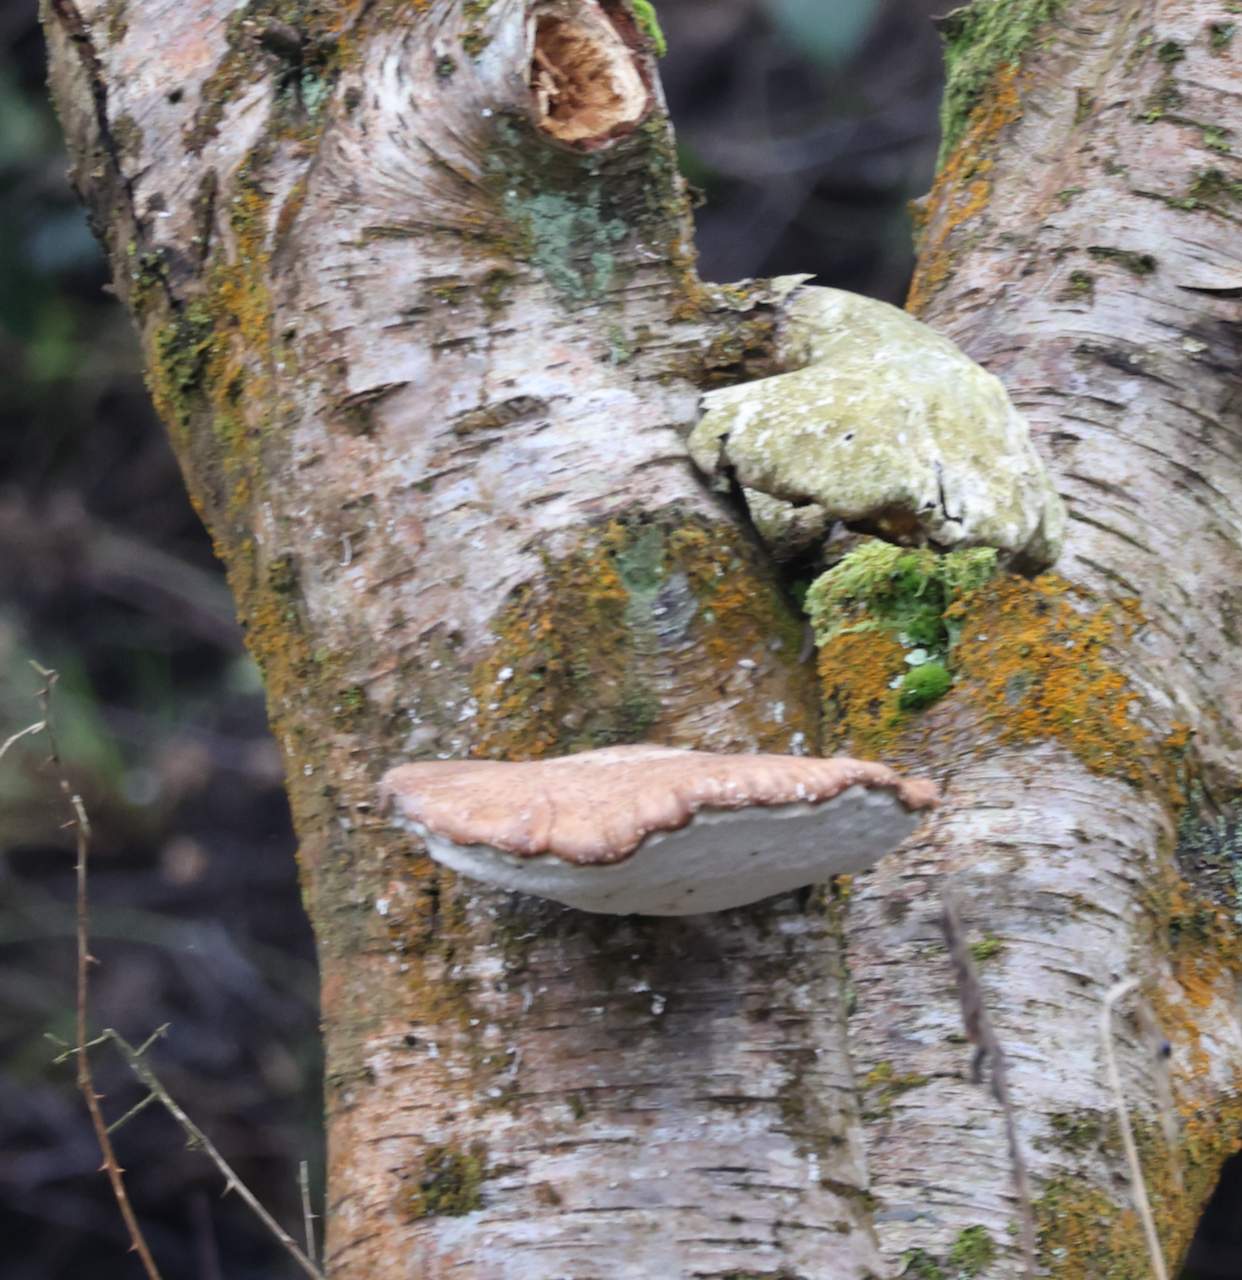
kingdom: Fungi
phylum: Basidiomycota
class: Agaricomycetes
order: Polyporales
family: Fomitopsidaceae
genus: Fomitopsis
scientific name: Fomitopsis betulina
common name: Birch polypore
